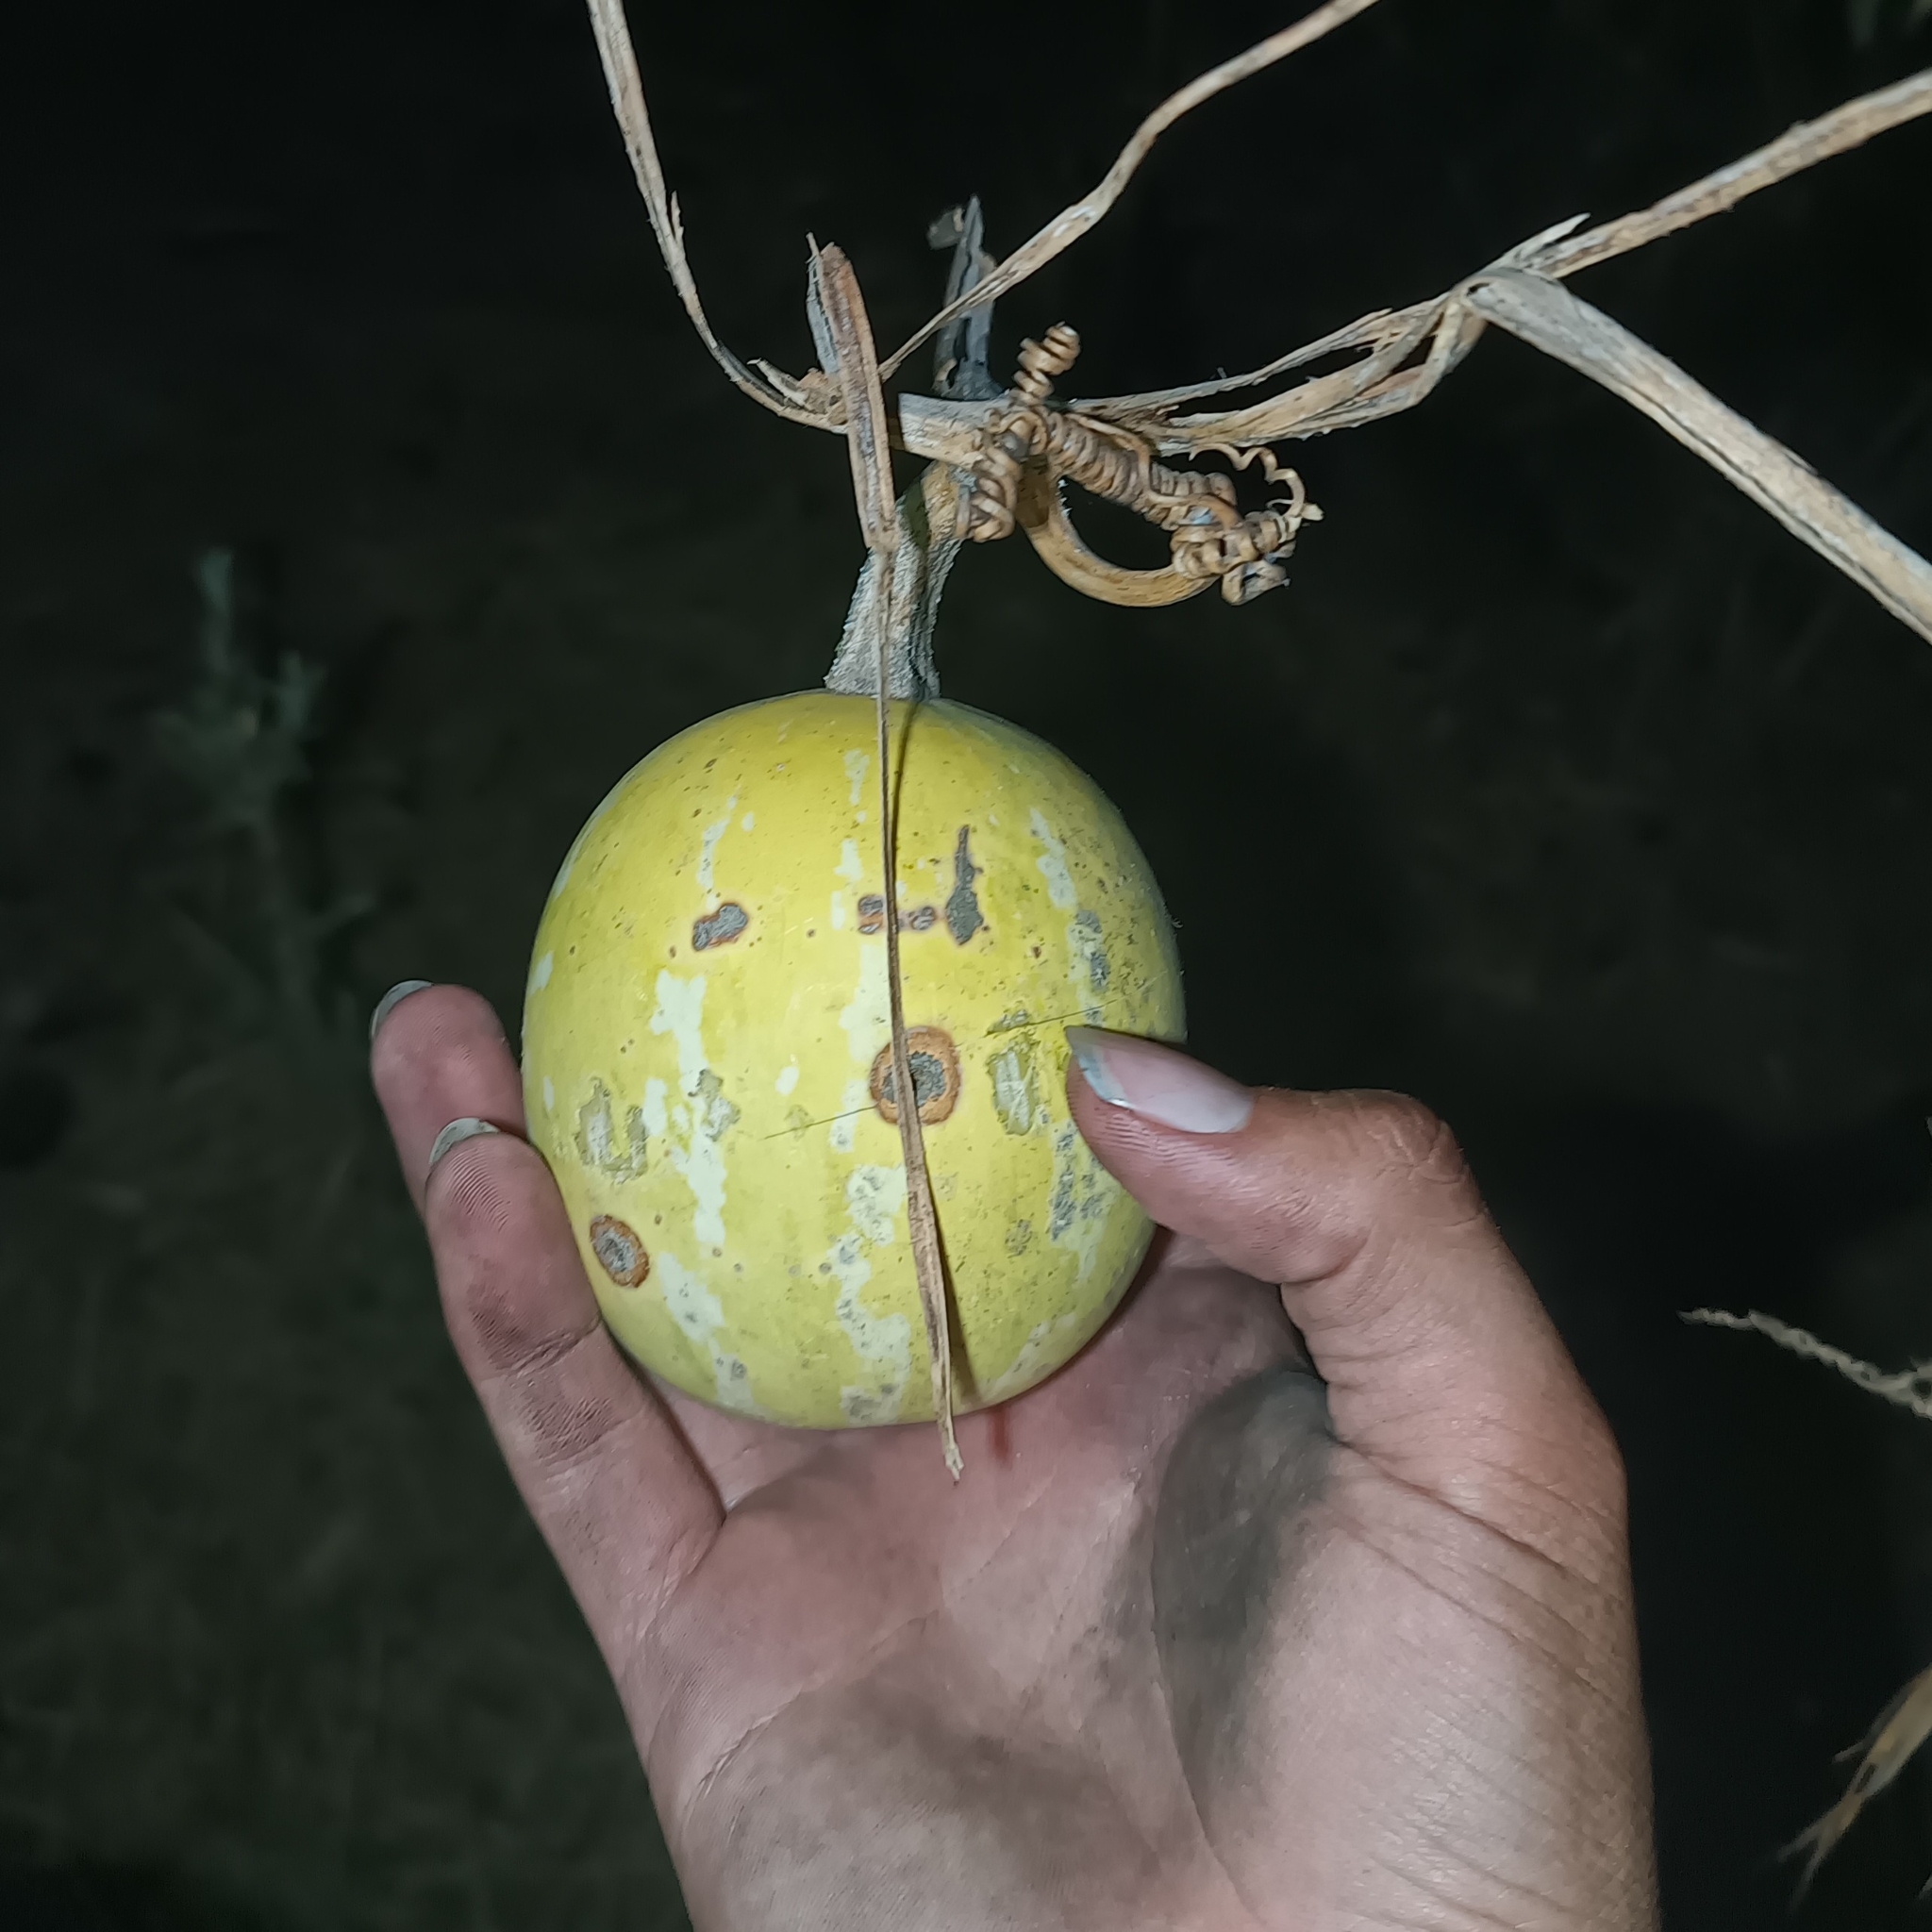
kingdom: Plantae
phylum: Tracheophyta
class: Magnoliopsida
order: Cucurbitales
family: Cucurbitaceae
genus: Cucurbita
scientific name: Cucurbita argyrosperma
